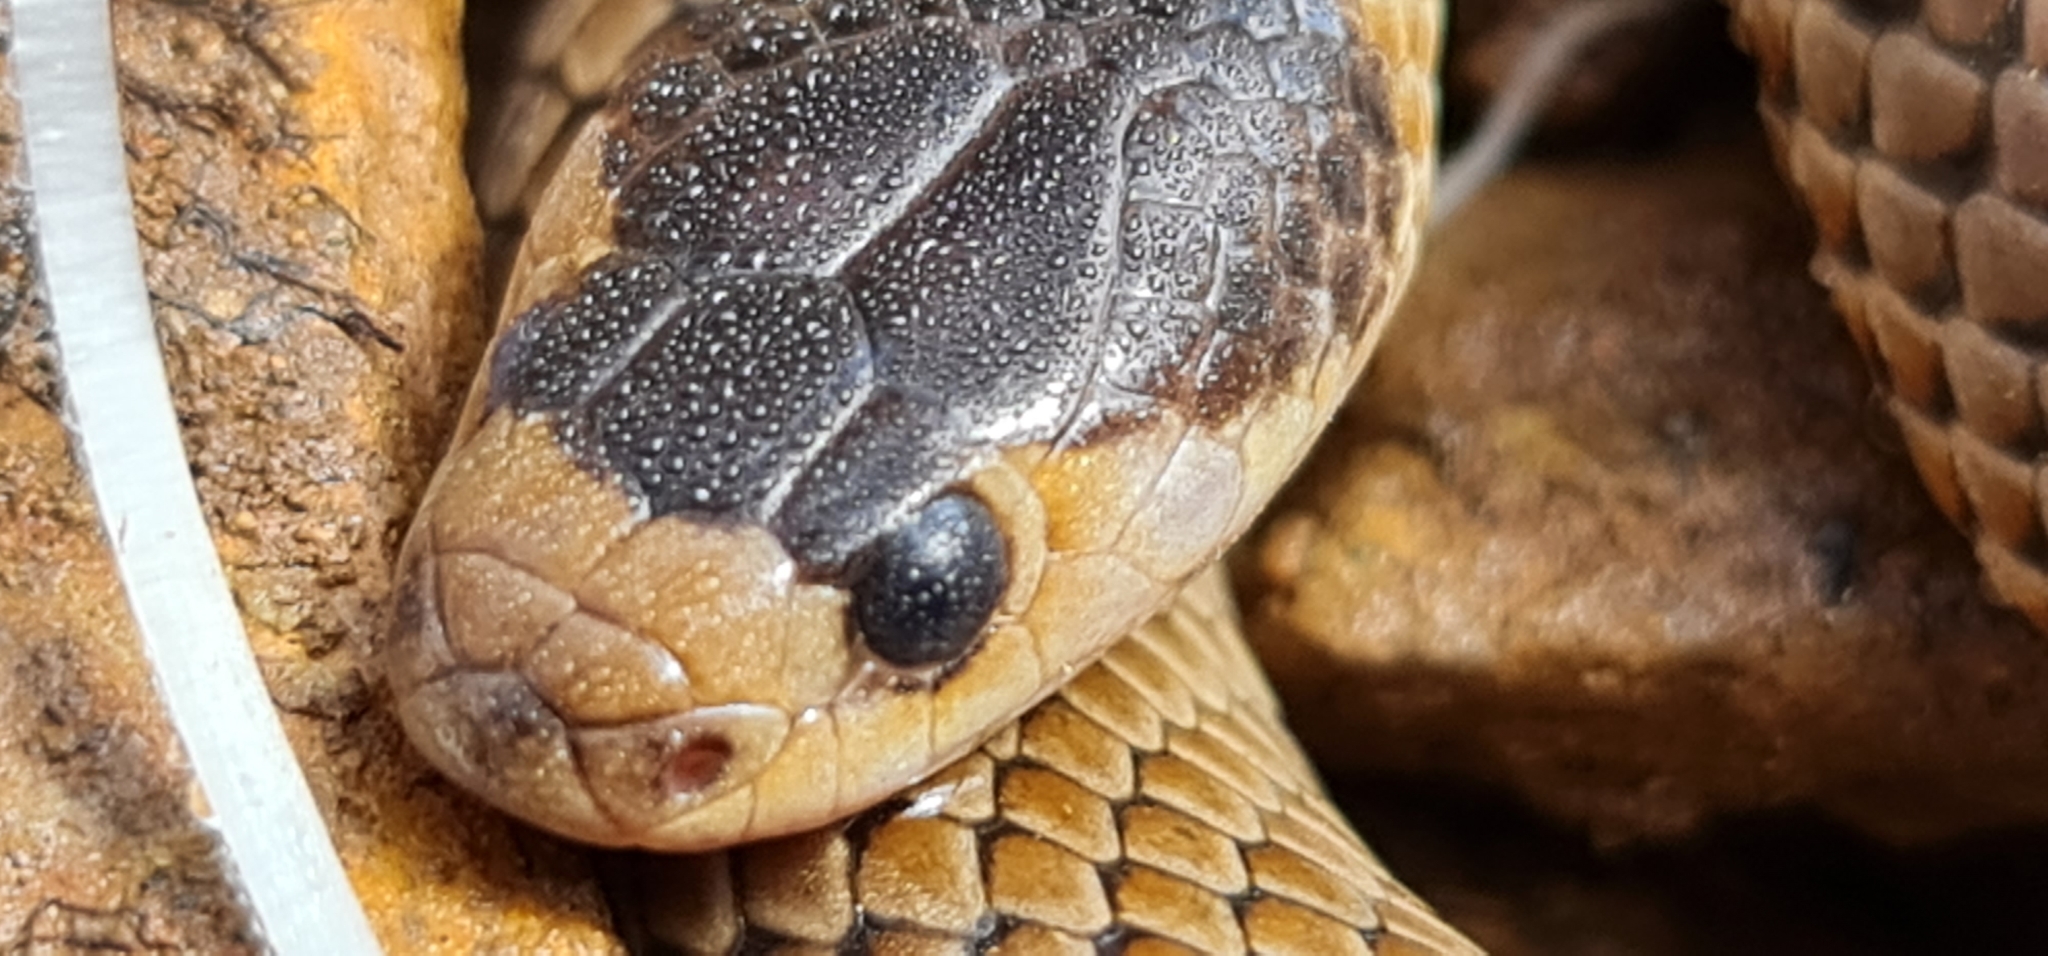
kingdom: Animalia
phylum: Chordata
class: Squamata
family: Elapidae
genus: Suta
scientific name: Suta flagellum
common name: Little whip snake
